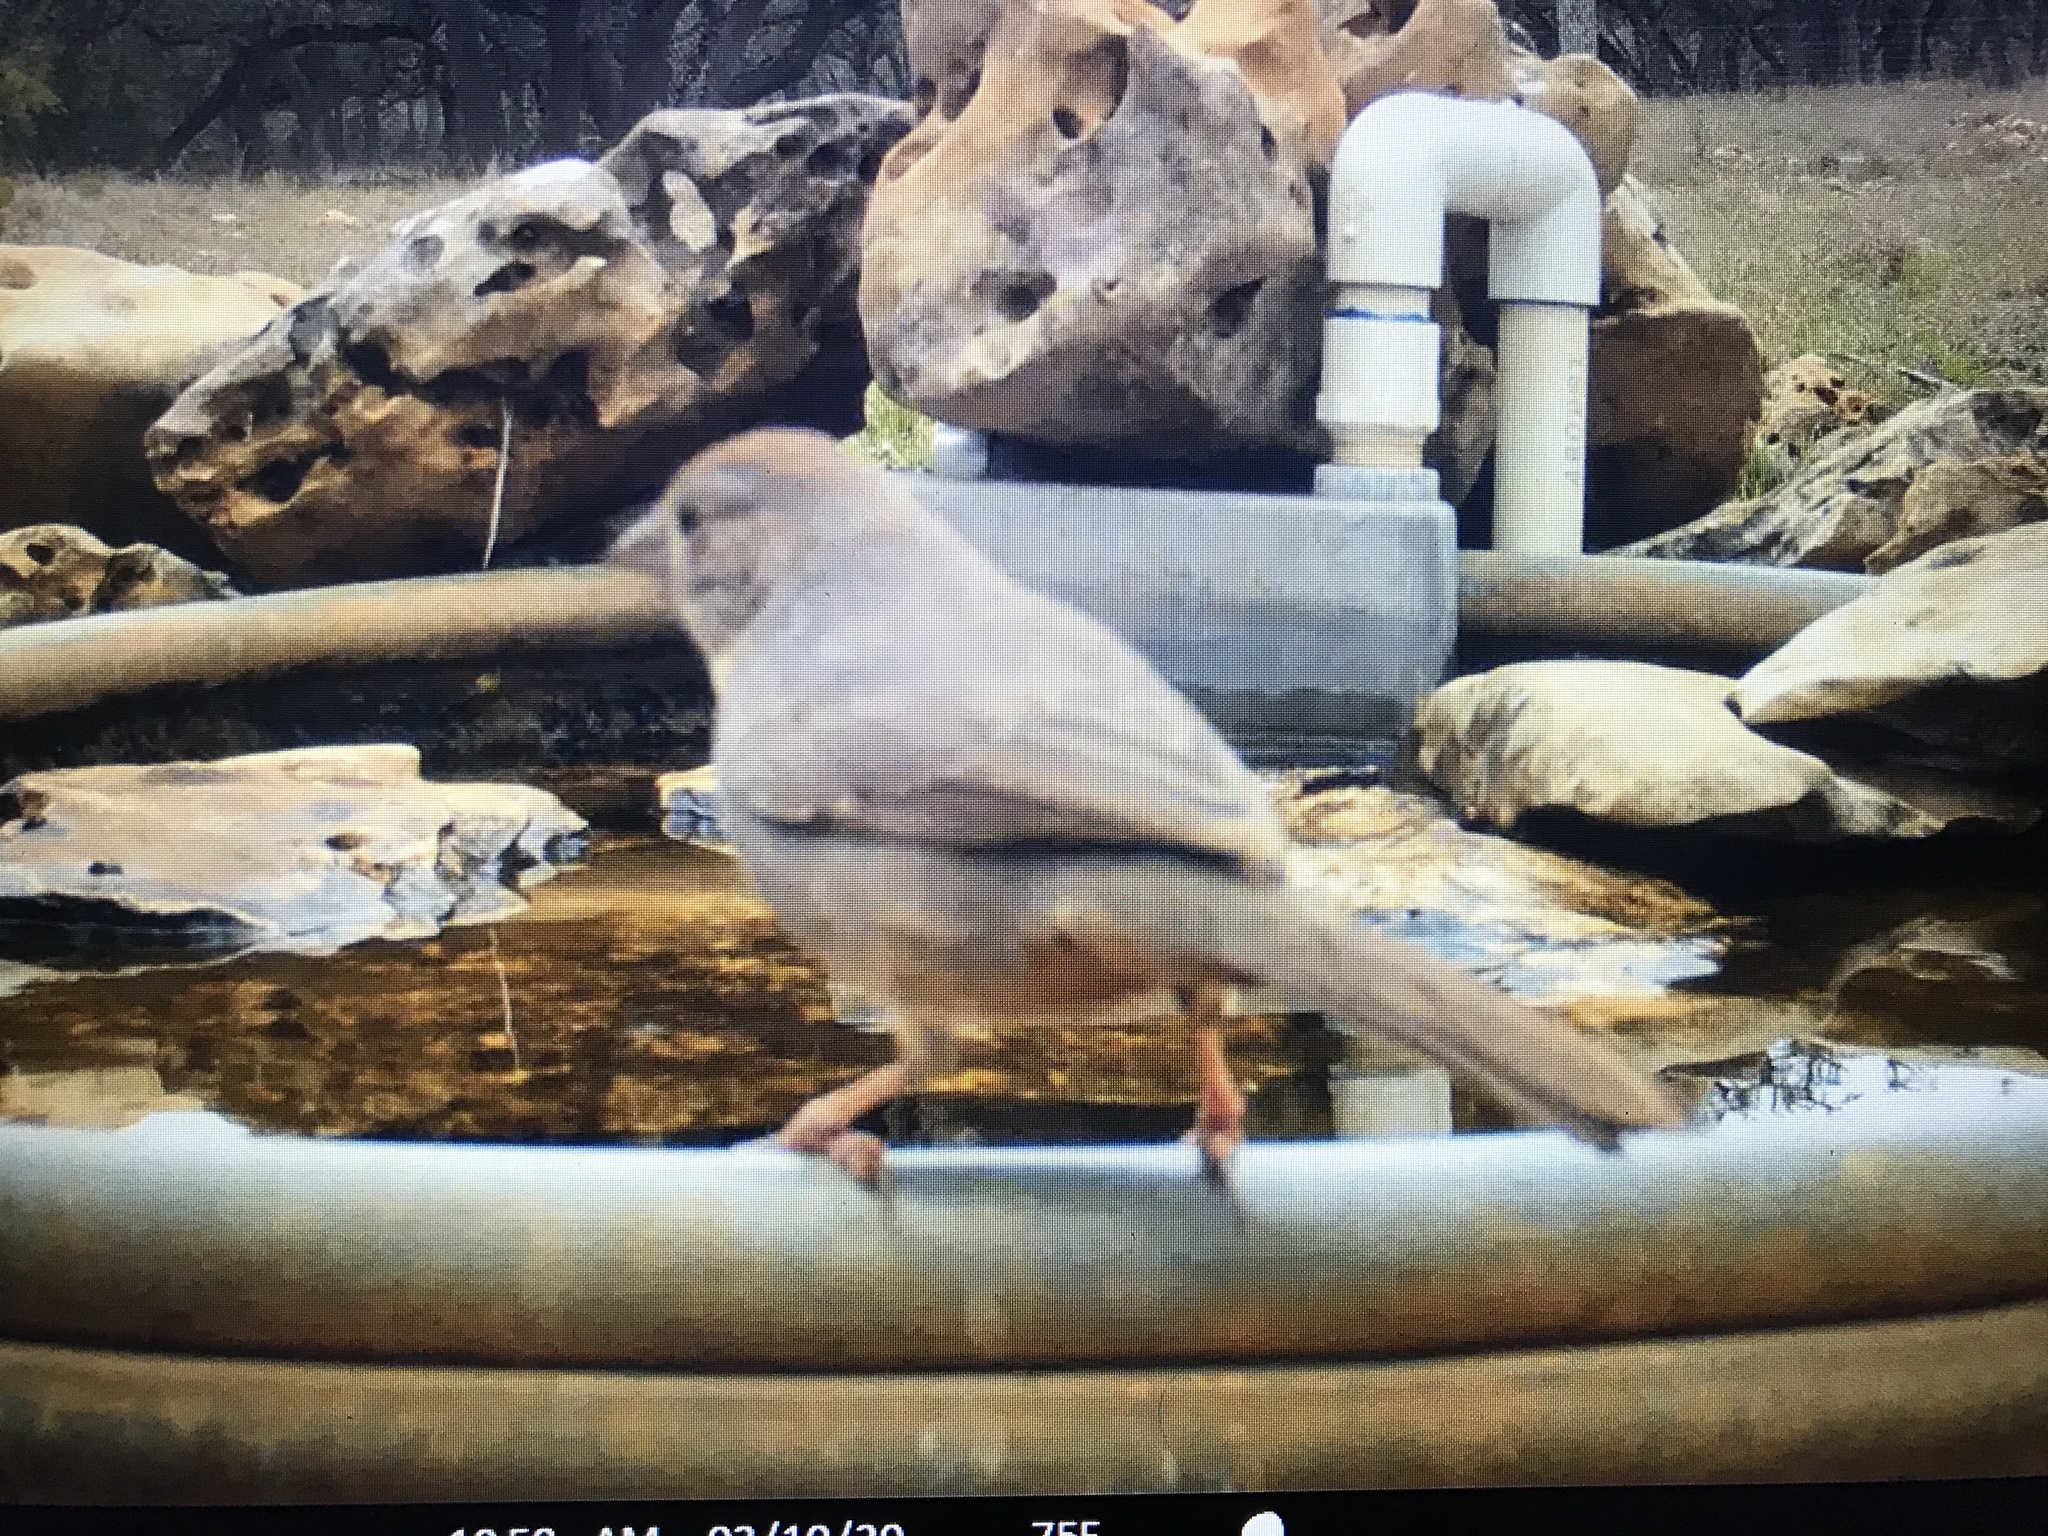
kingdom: Animalia
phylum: Chordata
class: Aves
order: Passeriformes
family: Passerellidae
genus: Melozone
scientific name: Melozone fusca
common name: Canyon towhee
